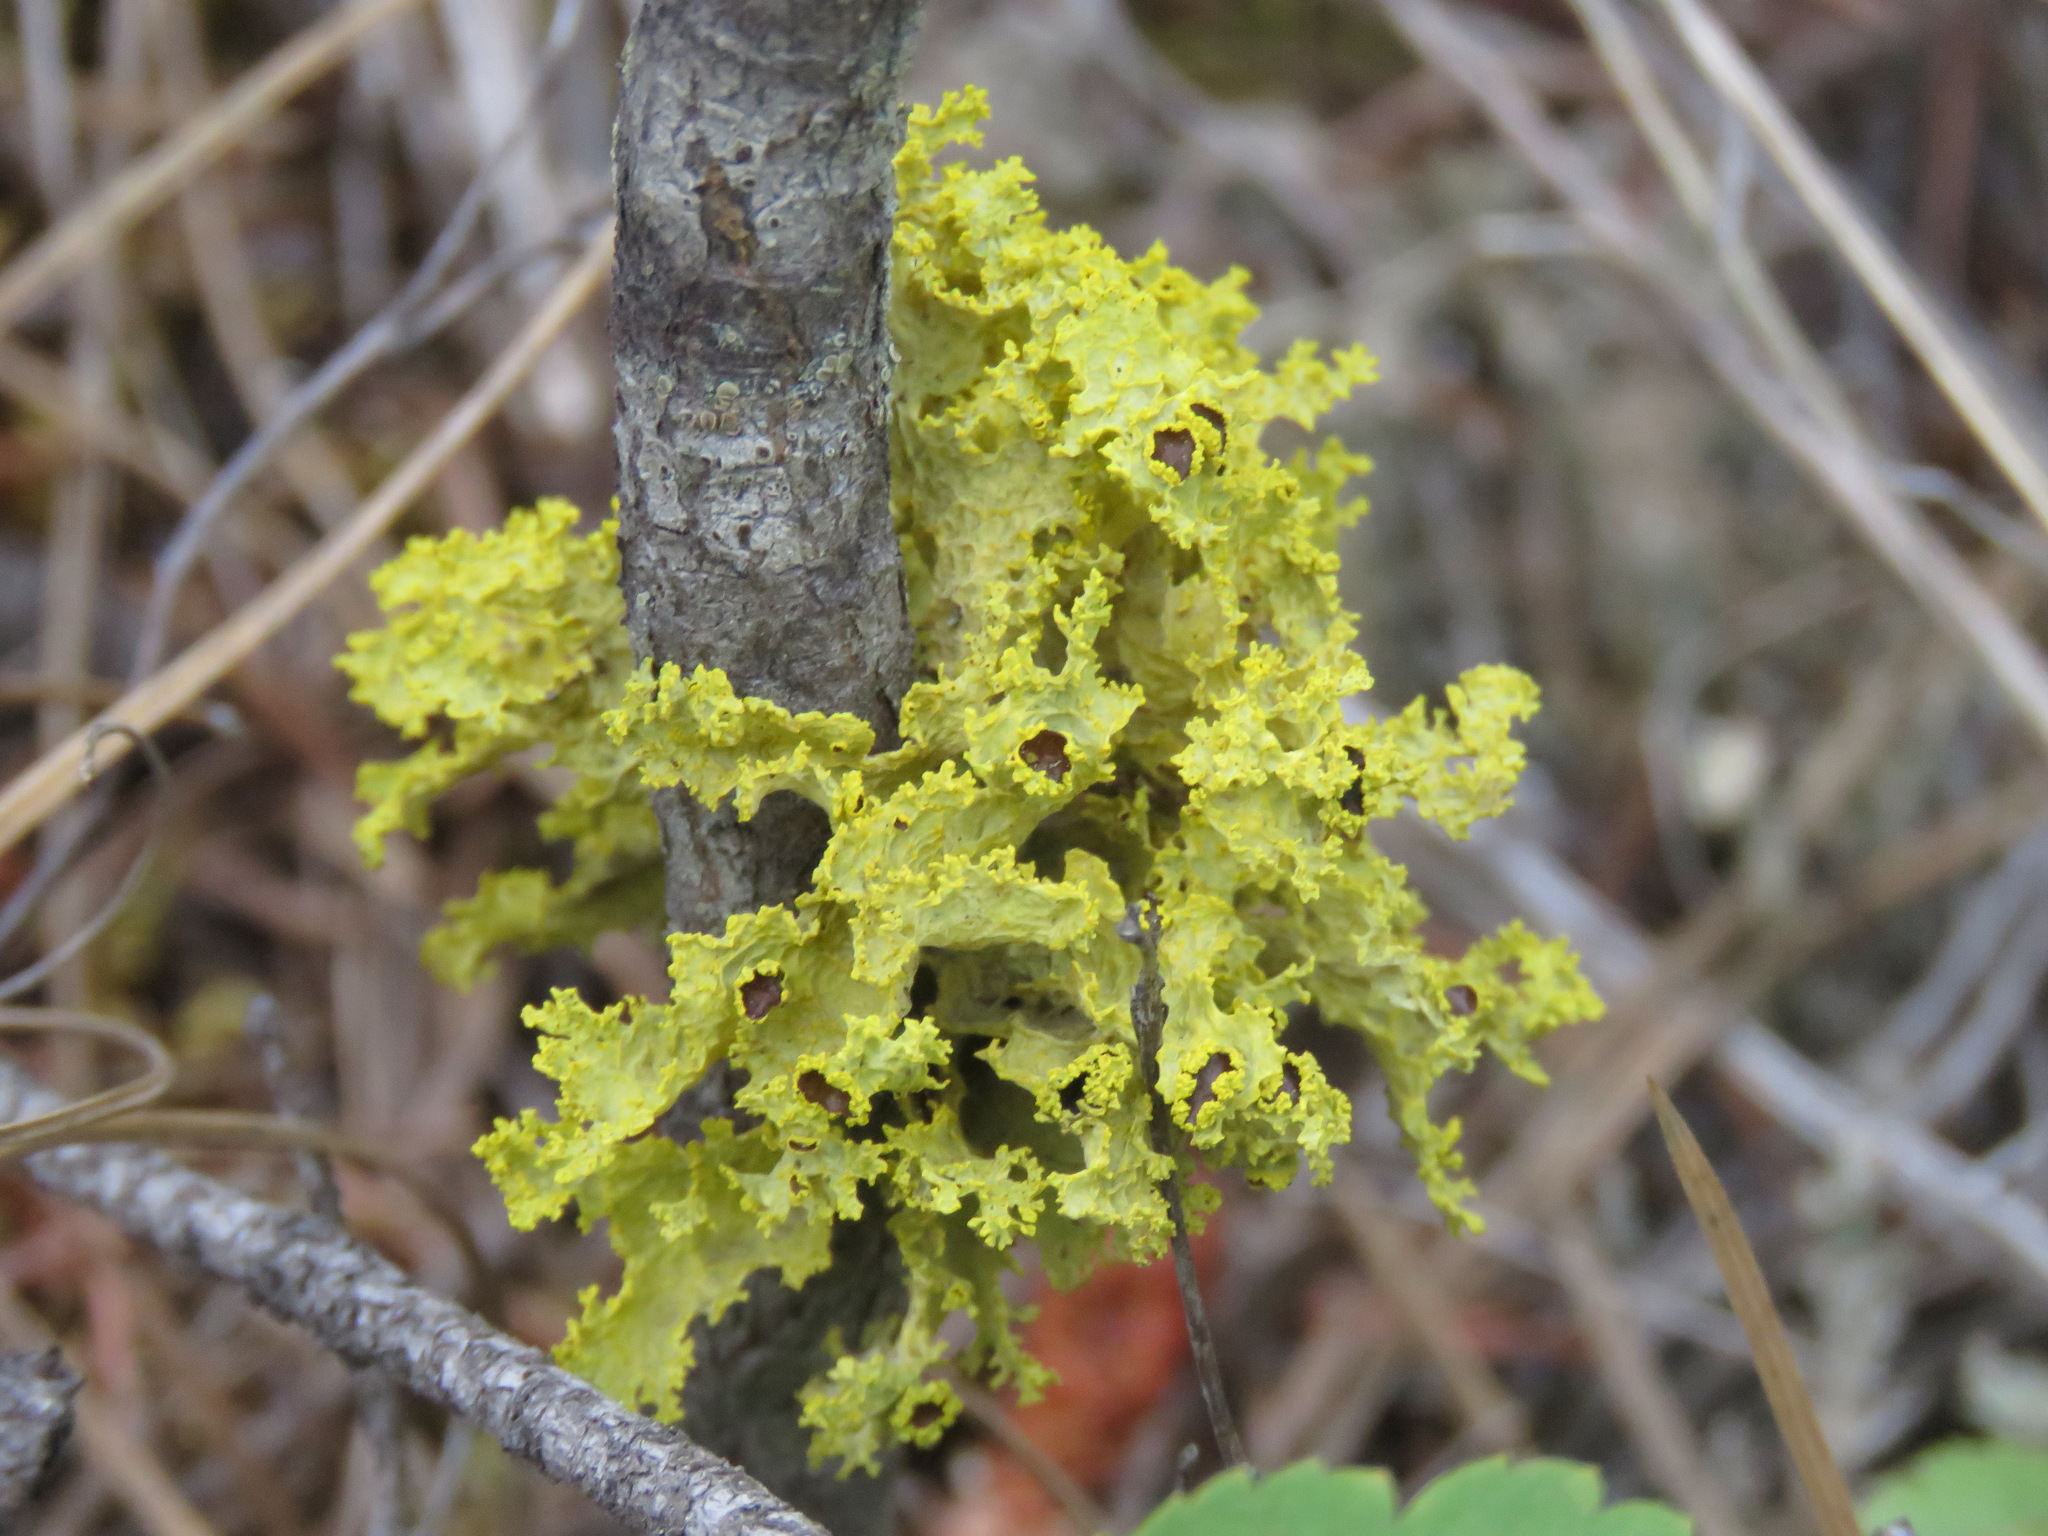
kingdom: Fungi
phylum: Ascomycota
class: Lecanoromycetes
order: Lecanorales
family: Parmeliaceae
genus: Vulpicida
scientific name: Vulpicida canadensis
